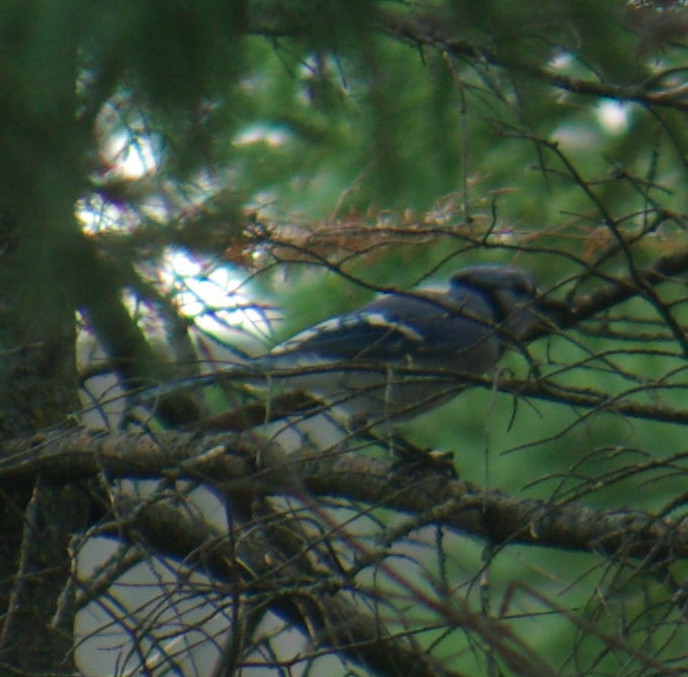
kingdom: Animalia
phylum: Chordata
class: Aves
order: Passeriformes
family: Corvidae
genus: Cyanocitta
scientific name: Cyanocitta cristata
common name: Blue jay
